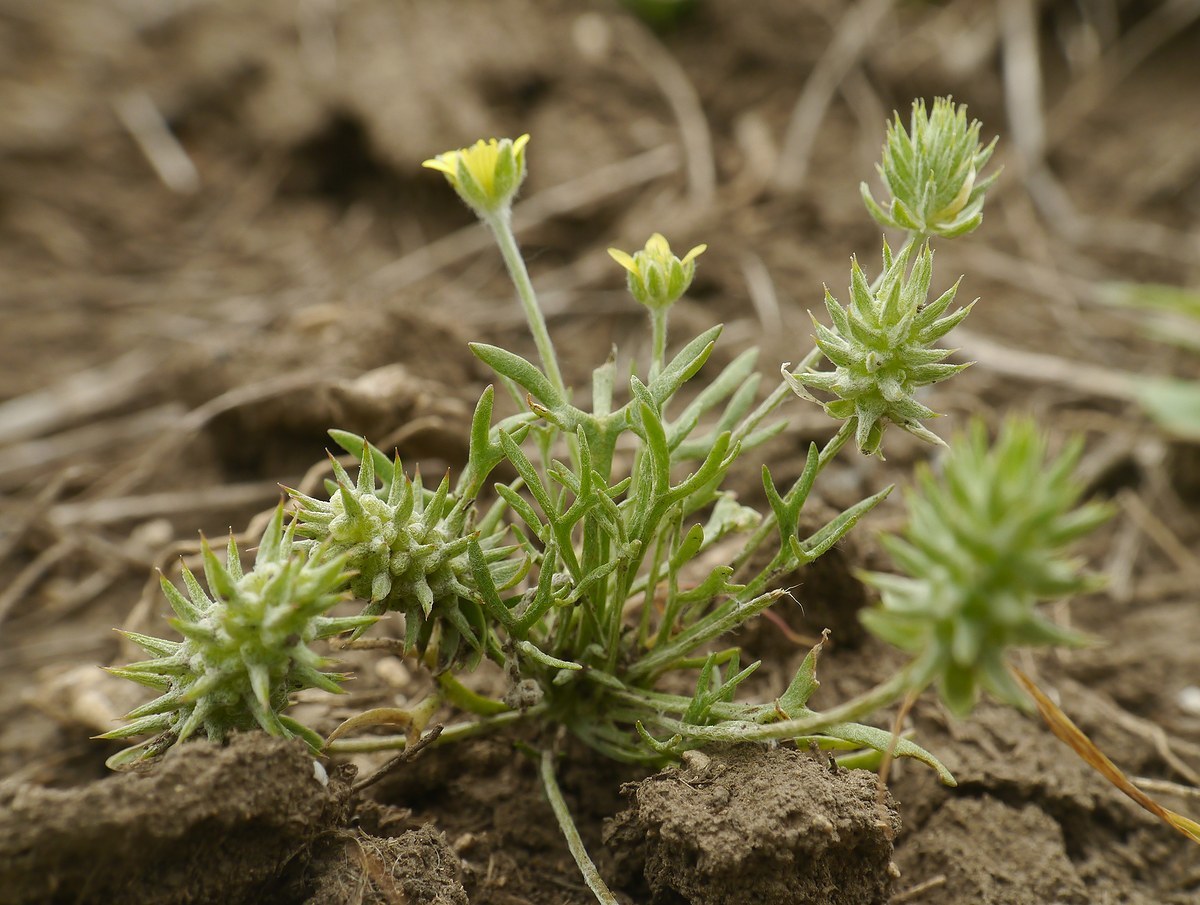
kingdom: Plantae
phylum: Tracheophyta
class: Magnoliopsida
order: Ranunculales
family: Ranunculaceae
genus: Ceratocephala
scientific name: Ceratocephala orthoceras
